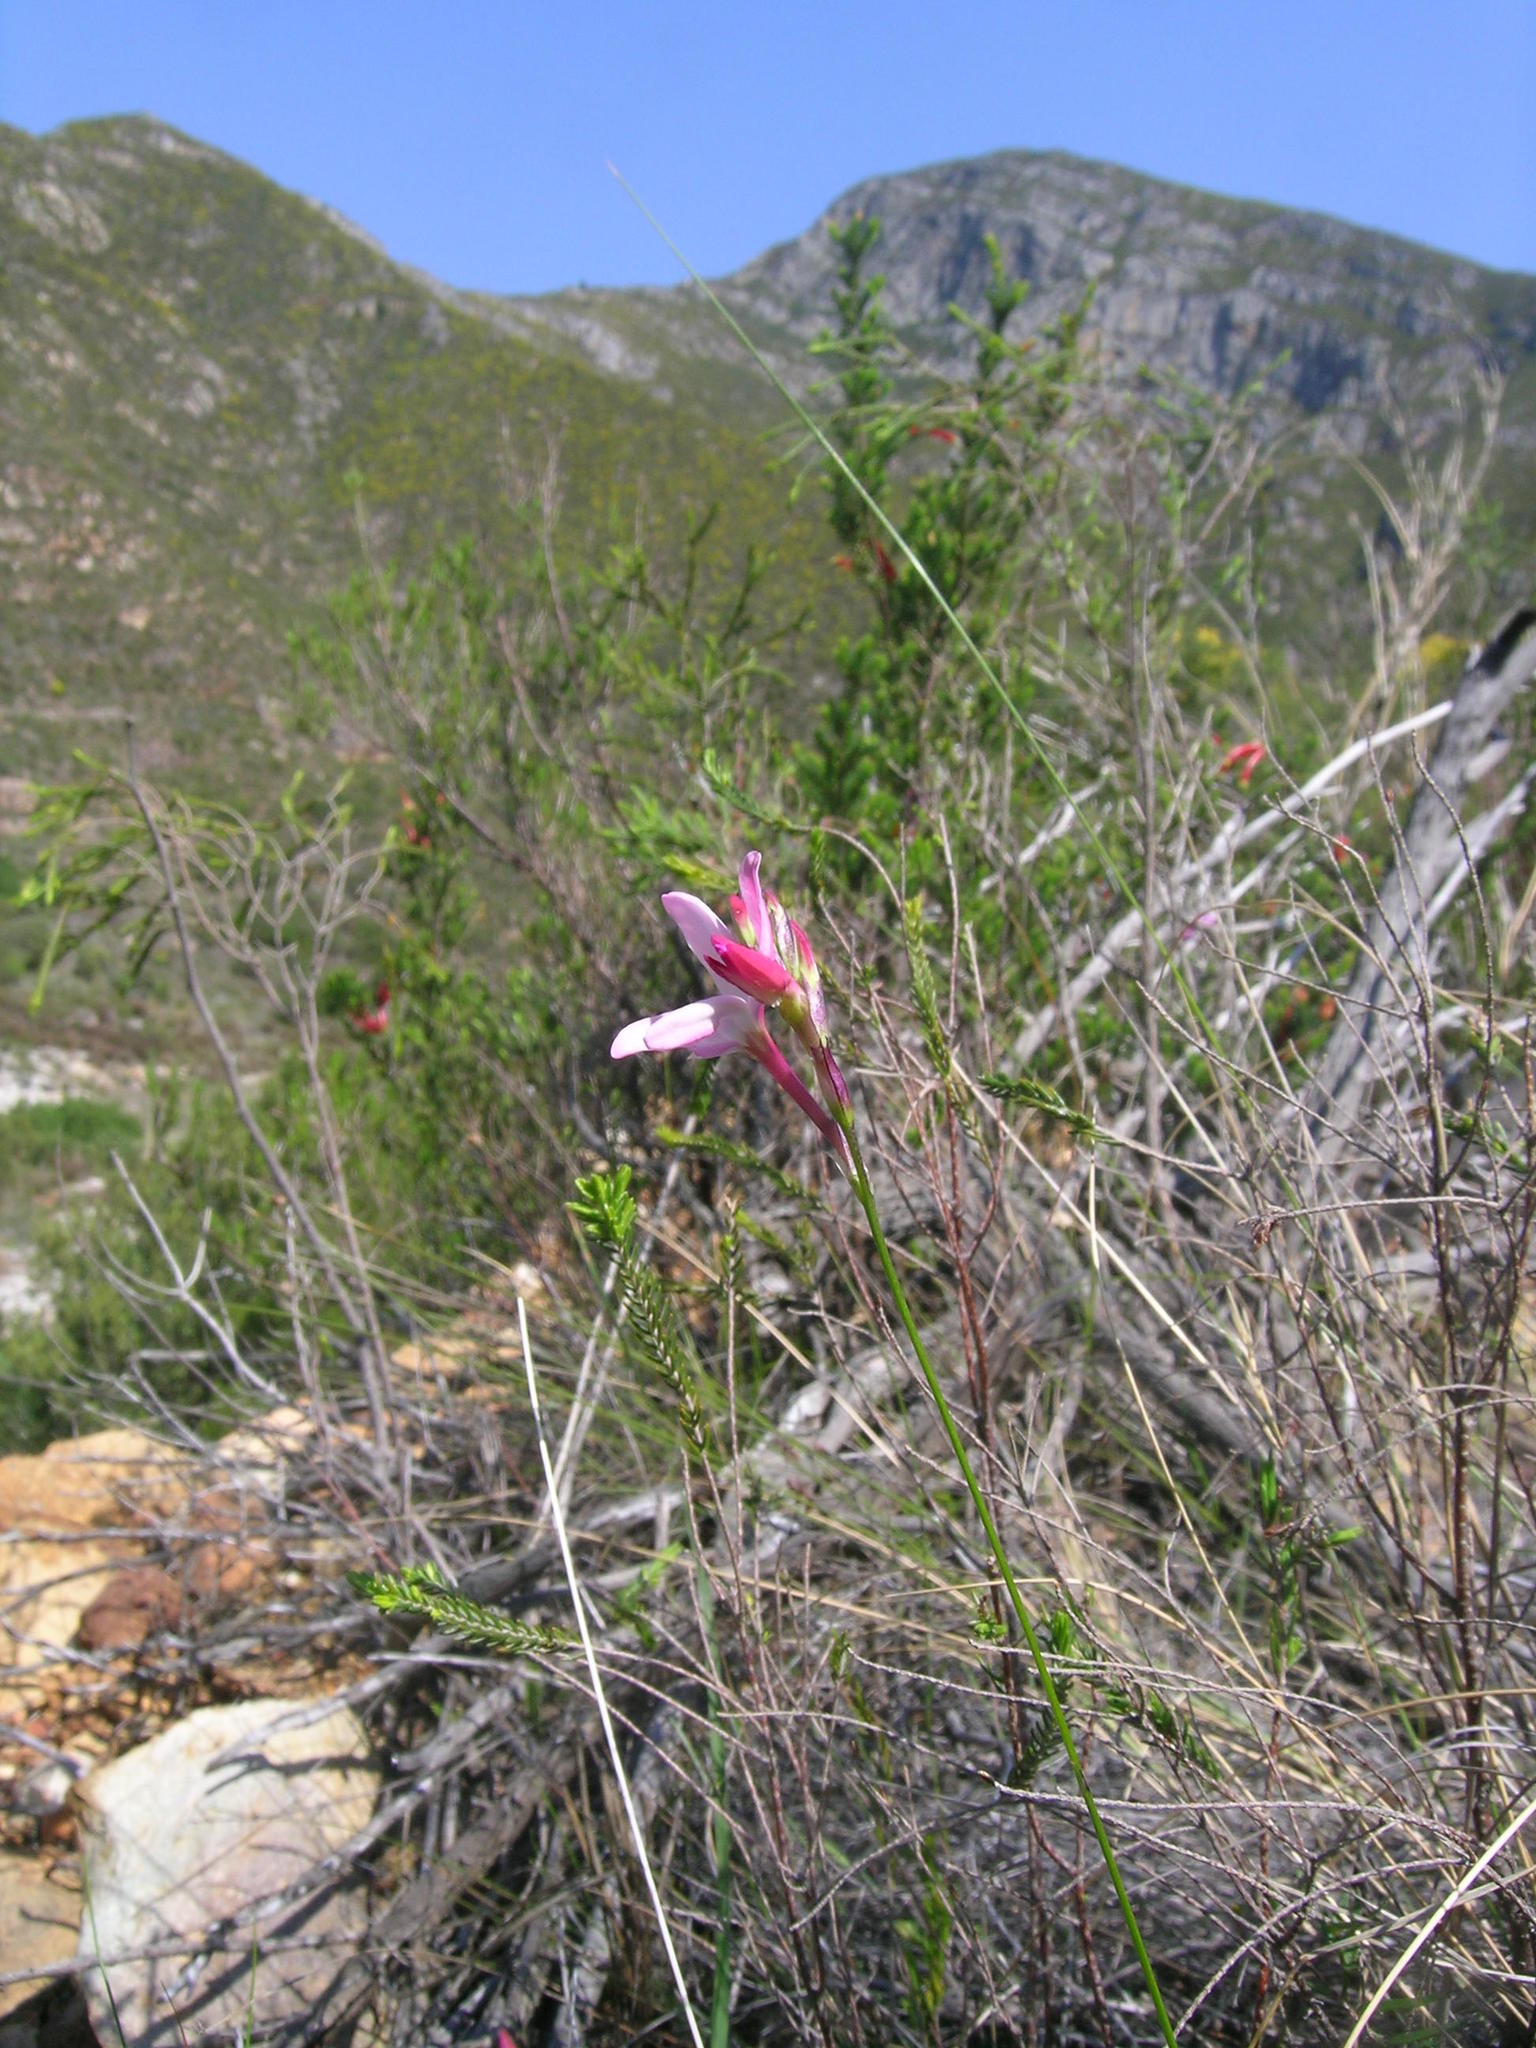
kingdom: Plantae
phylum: Tracheophyta
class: Liliopsida
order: Asparagales
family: Iridaceae
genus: Ixia
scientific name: Ixia stohriae
